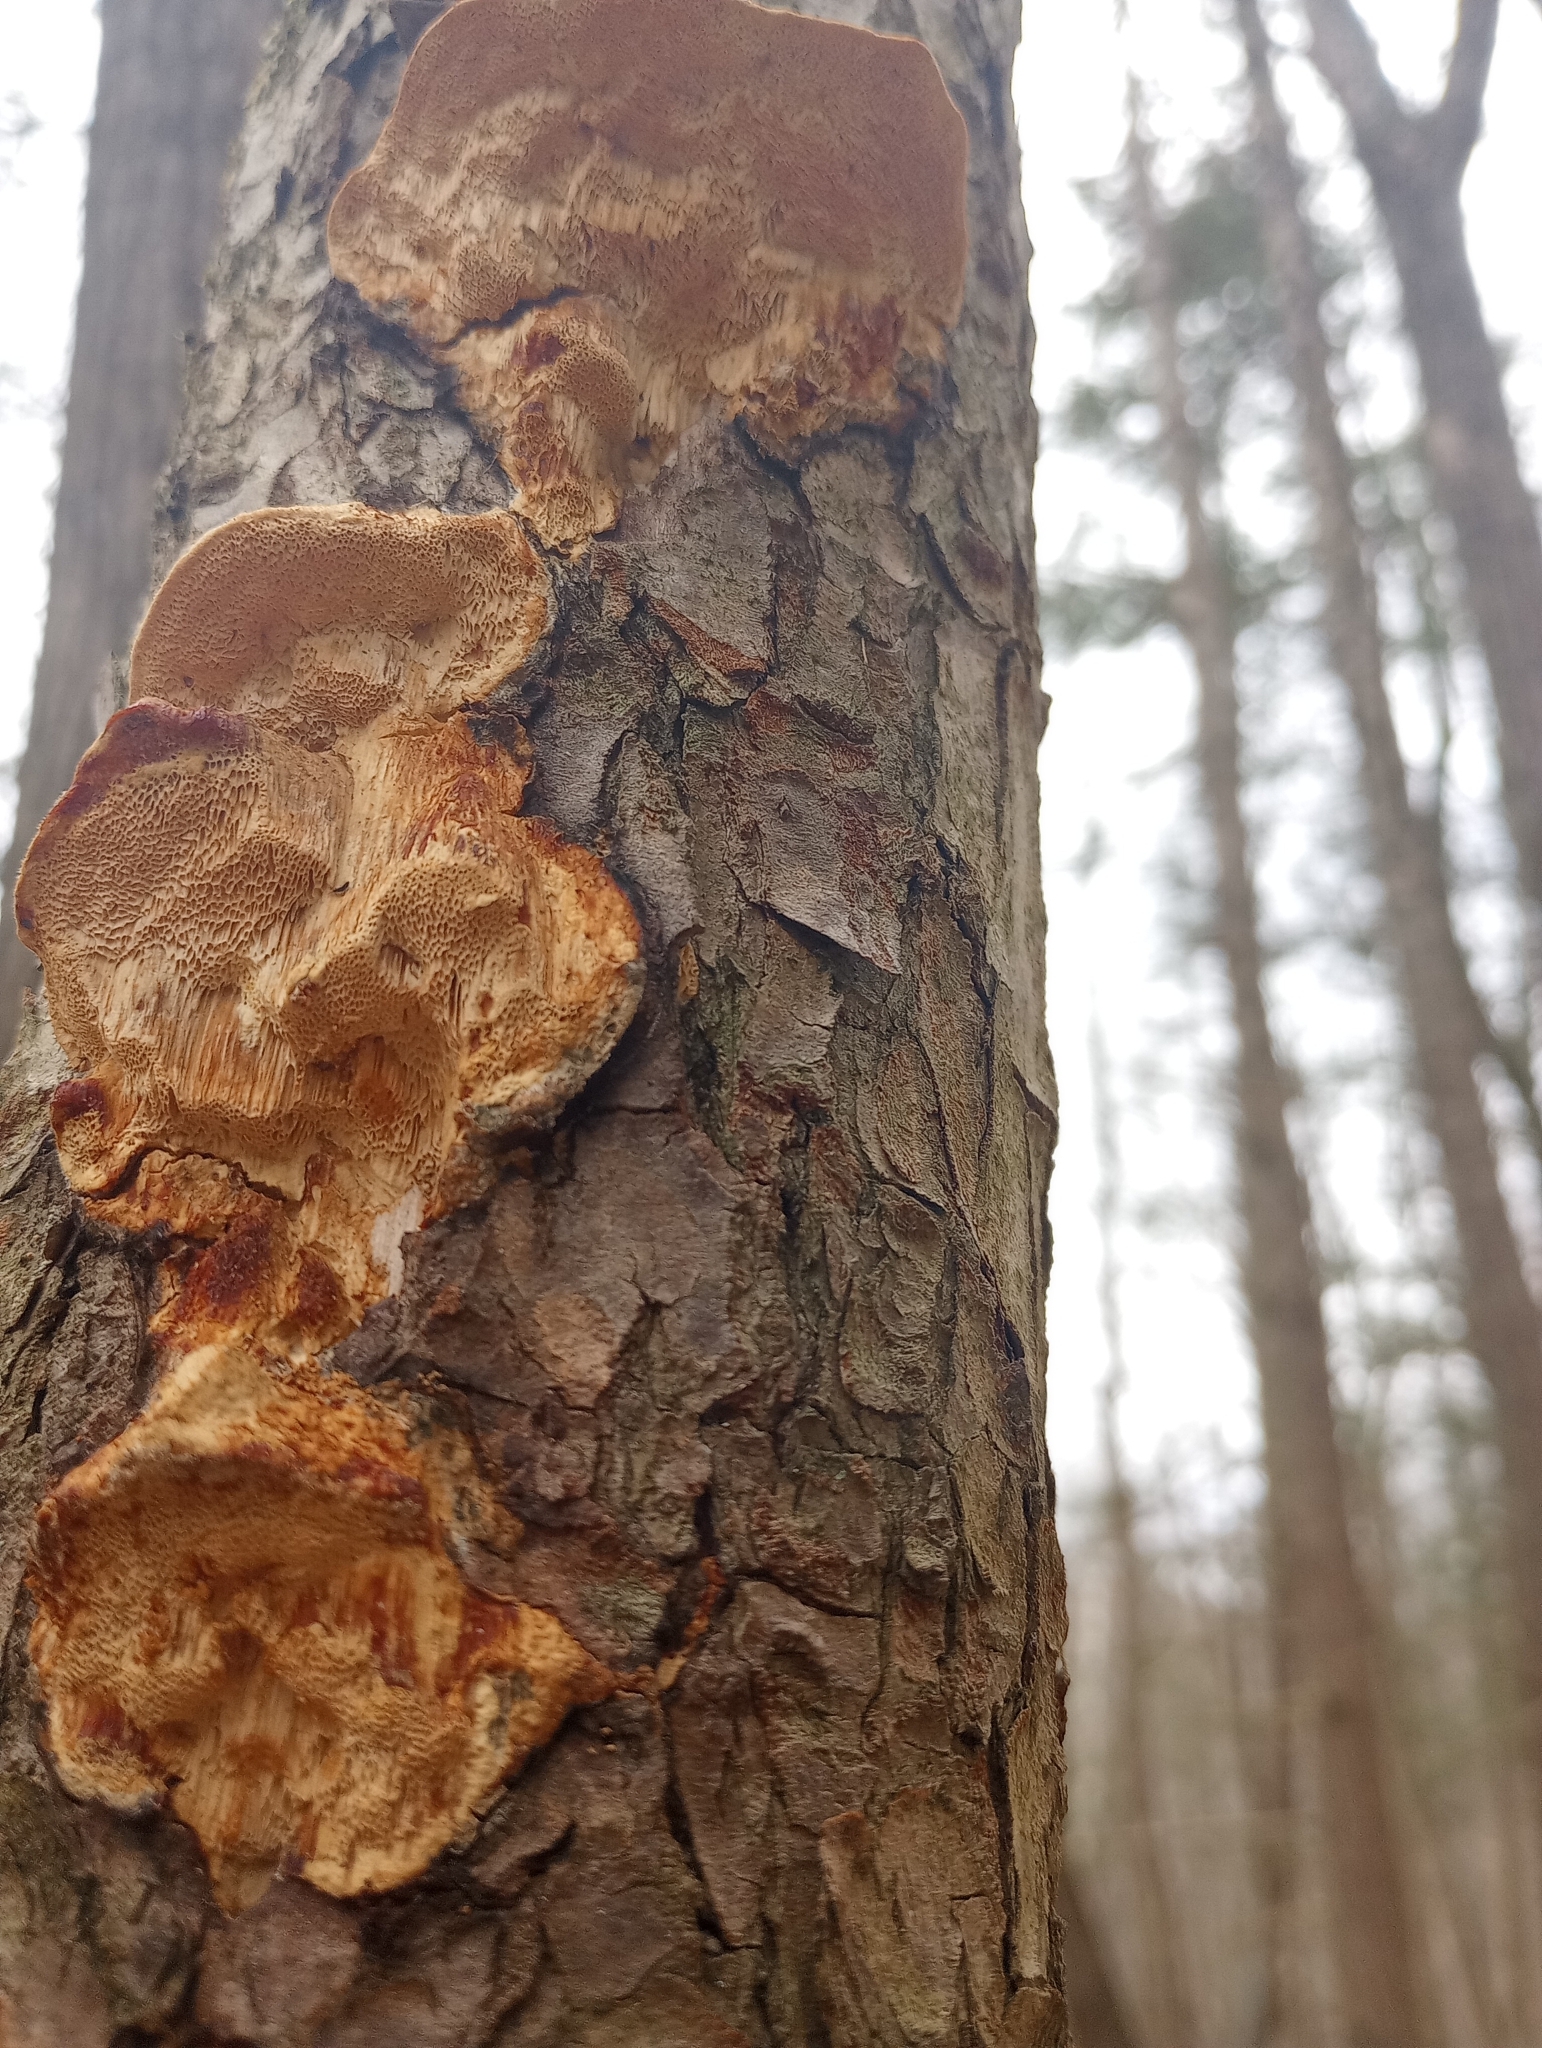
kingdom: Fungi
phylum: Basidiomycota
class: Agaricomycetes
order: Hymenochaetales
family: Hymenochaetaceae
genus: Porodaedalea
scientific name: Porodaedalea pini
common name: Pine bracket
